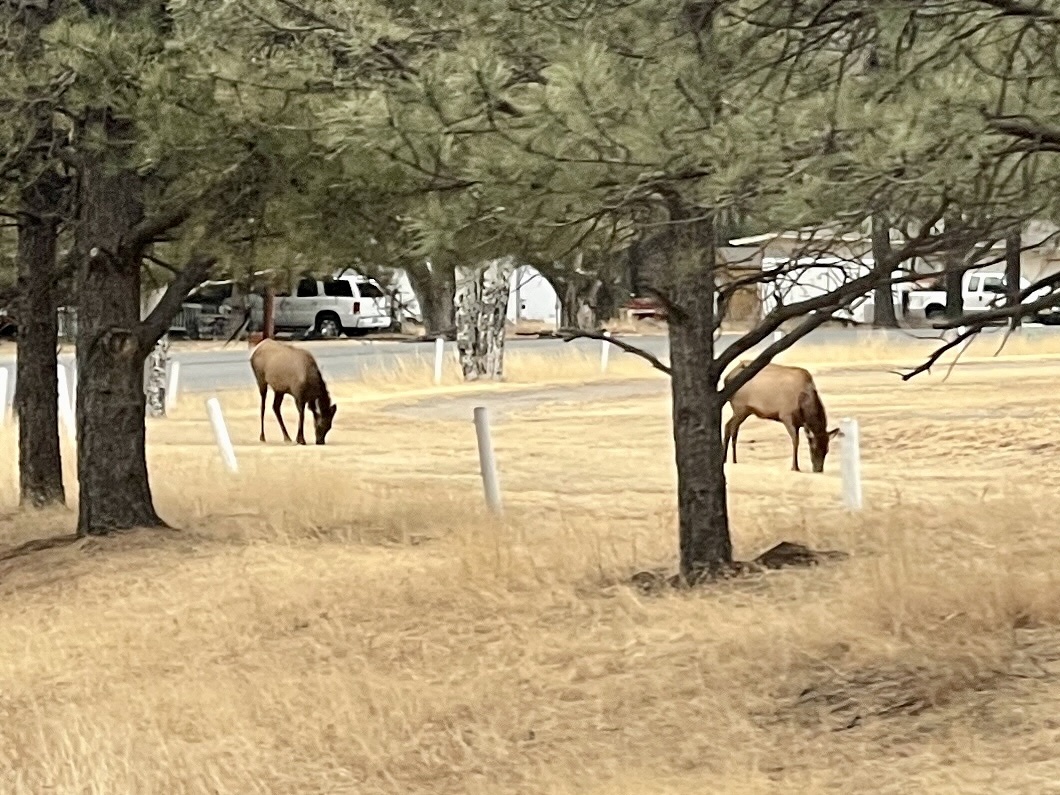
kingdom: Animalia
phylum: Chordata
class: Mammalia
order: Artiodactyla
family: Cervidae
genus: Cervus
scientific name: Cervus elaphus
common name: Red deer
